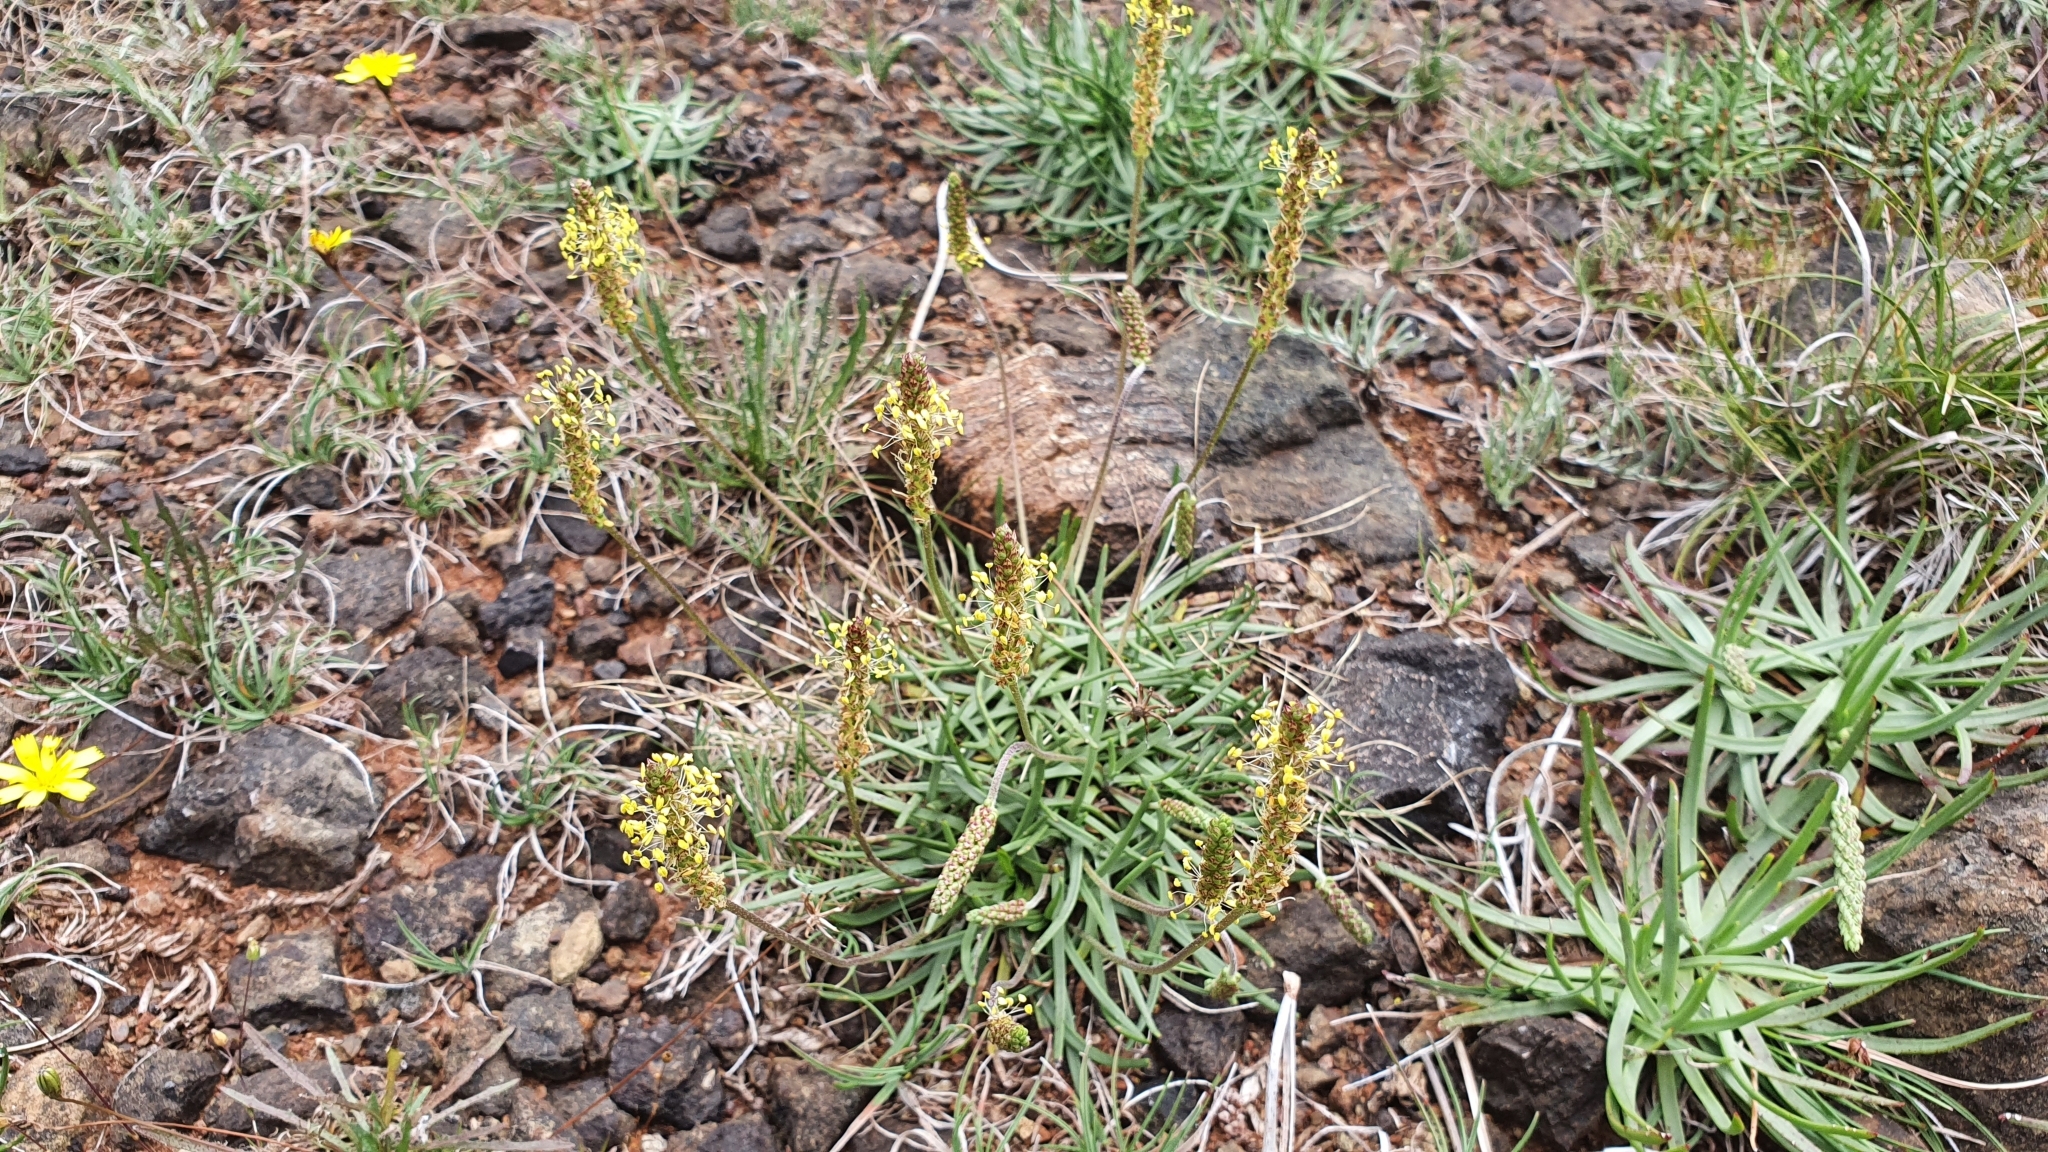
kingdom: Plantae
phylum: Tracheophyta
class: Magnoliopsida
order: Lamiales
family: Plantaginaceae
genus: Plantago
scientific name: Plantago
